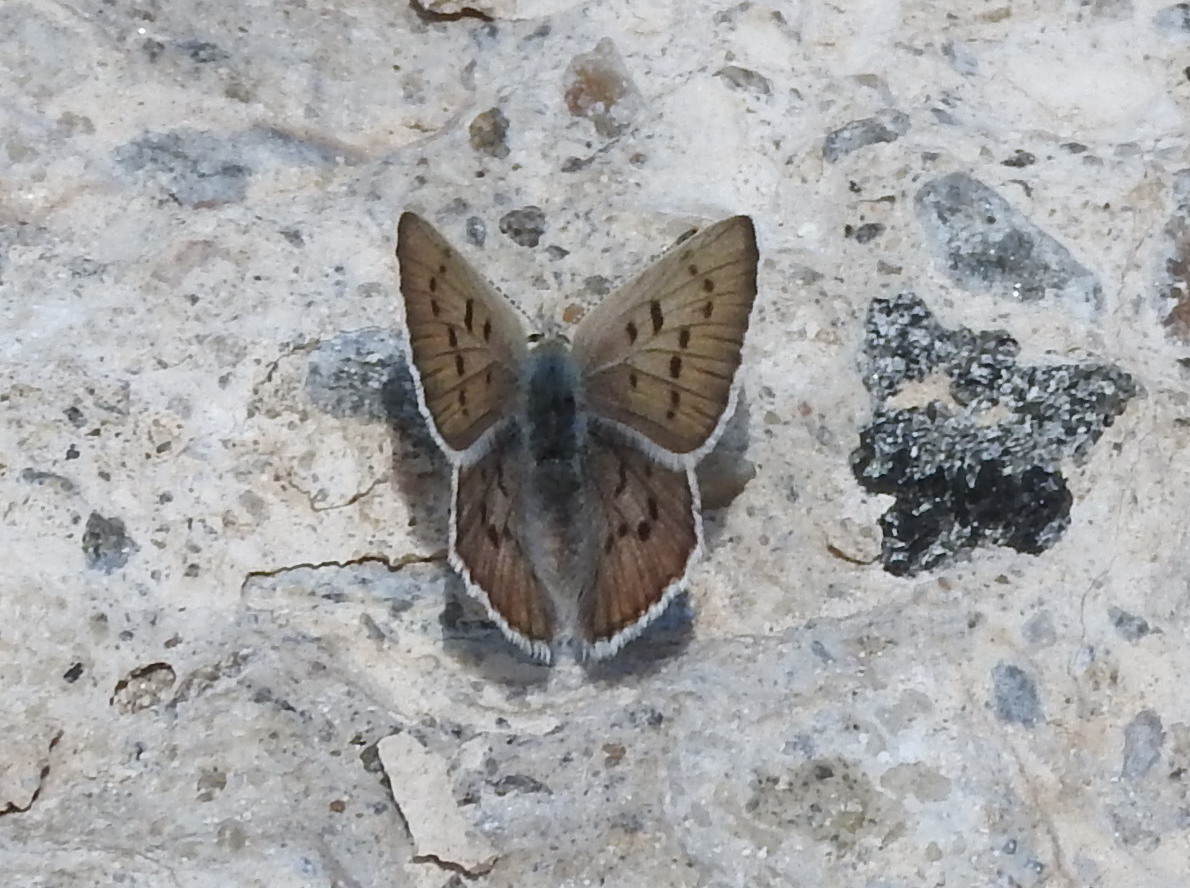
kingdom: Animalia
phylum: Arthropoda
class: Insecta
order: Lepidoptera
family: Lycaenidae
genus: Tharsalea
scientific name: Tharsalea heteronea
